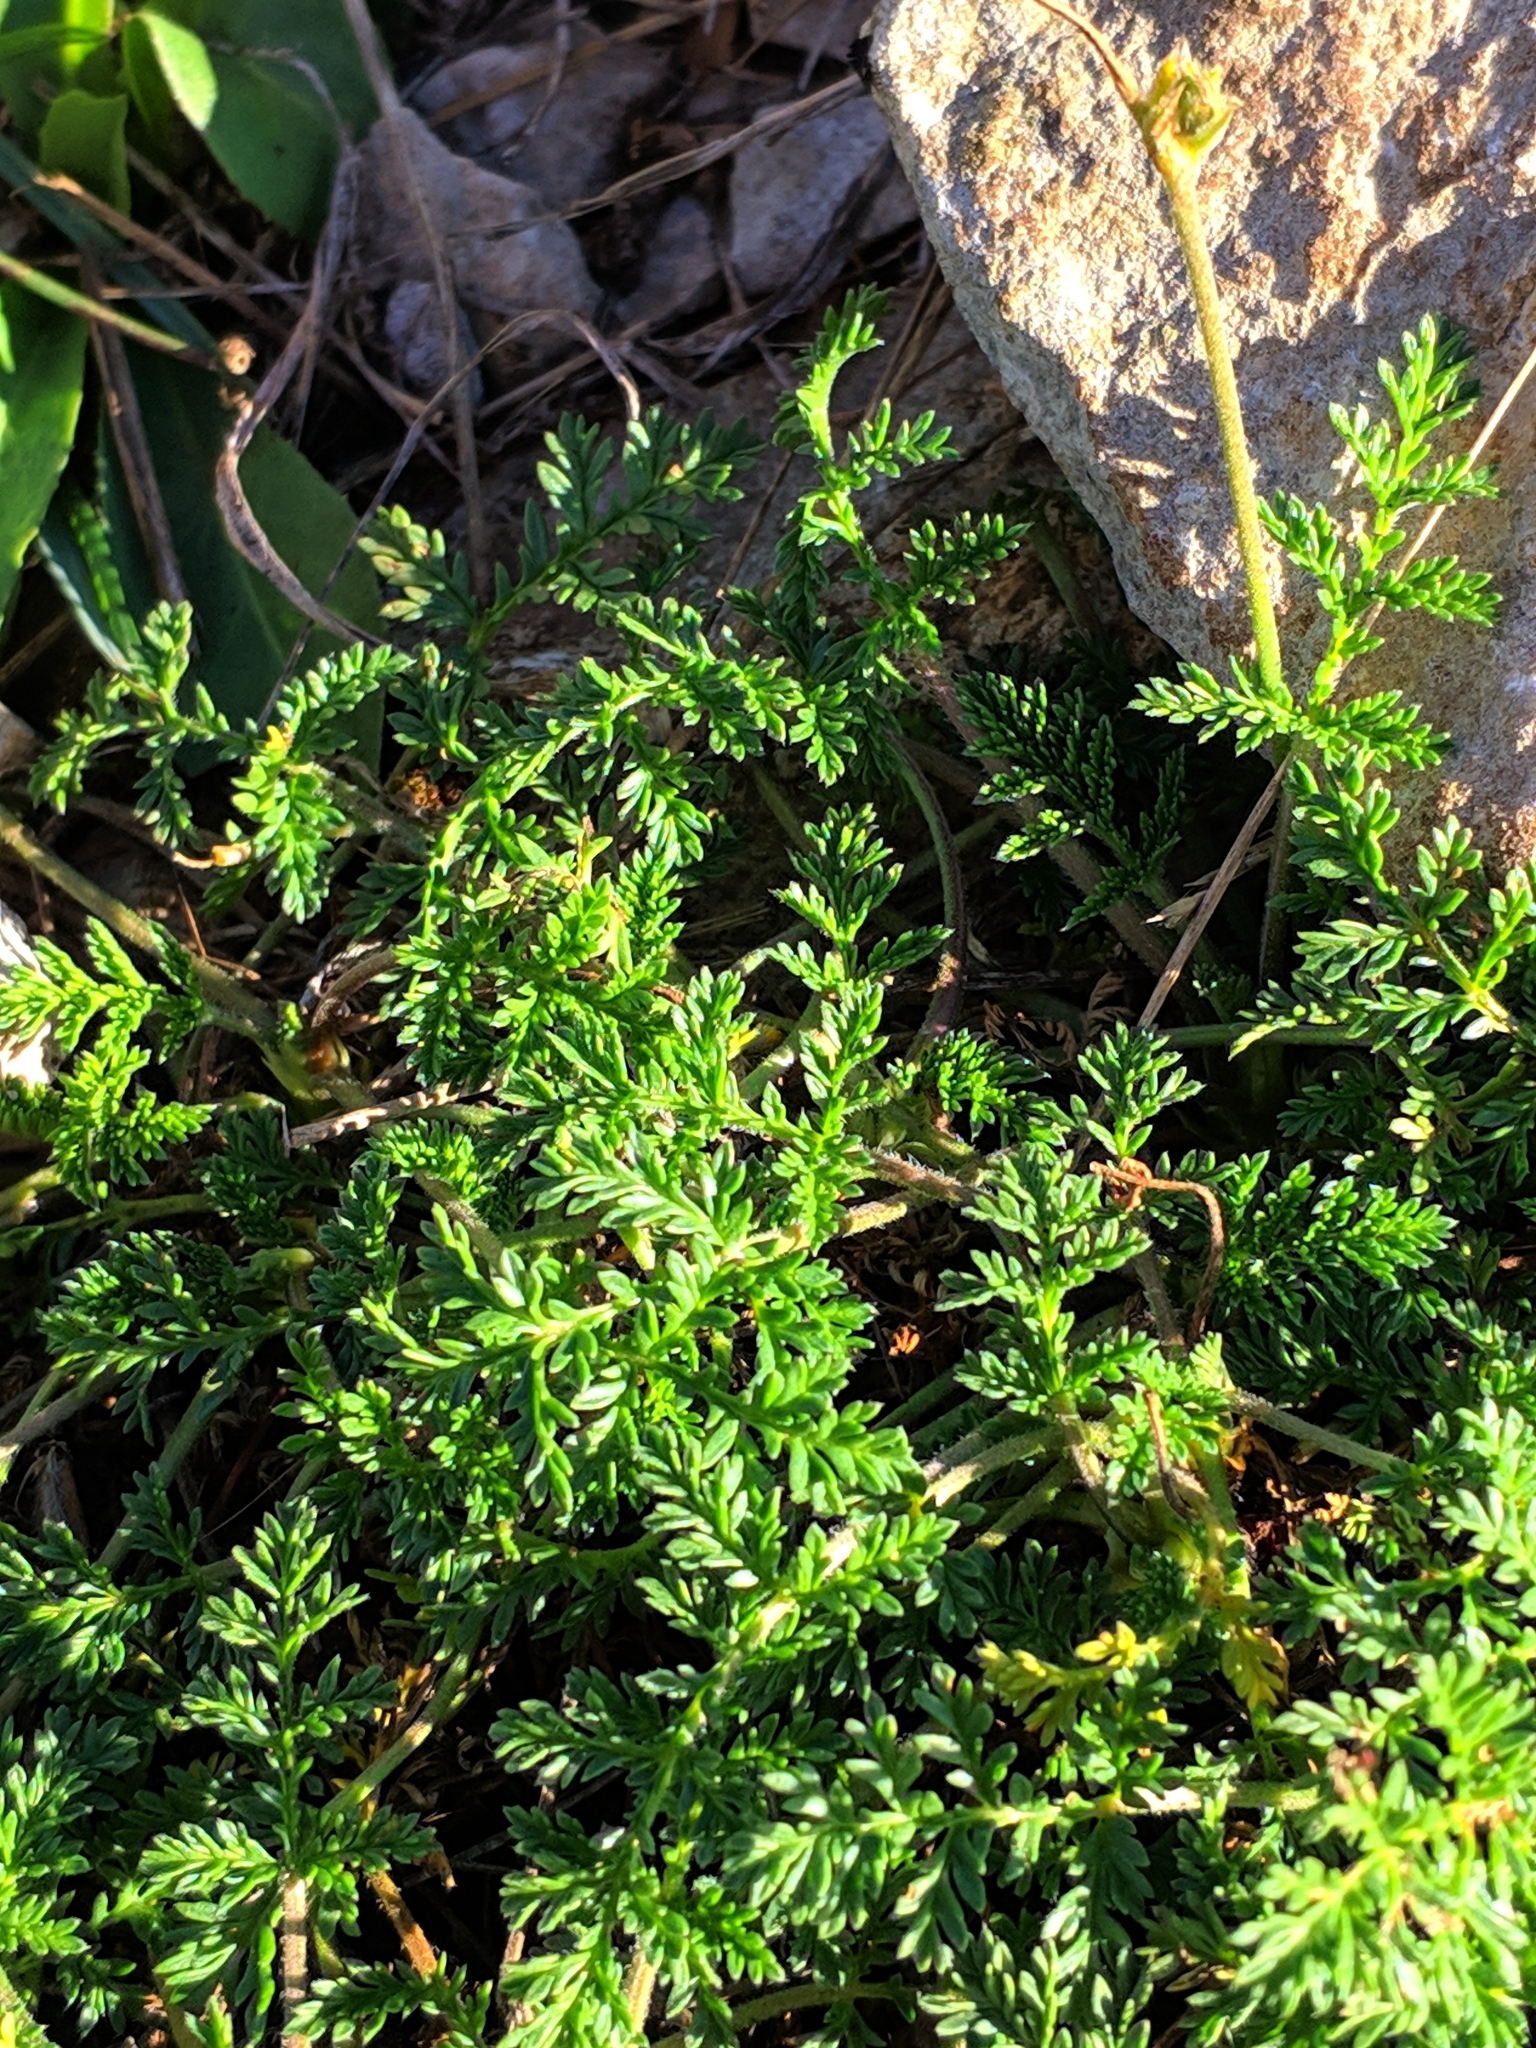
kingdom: Plantae
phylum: Tracheophyta
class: Magnoliopsida
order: Geraniales
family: Geraniaceae
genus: Erodium
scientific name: Erodium glandulosum
